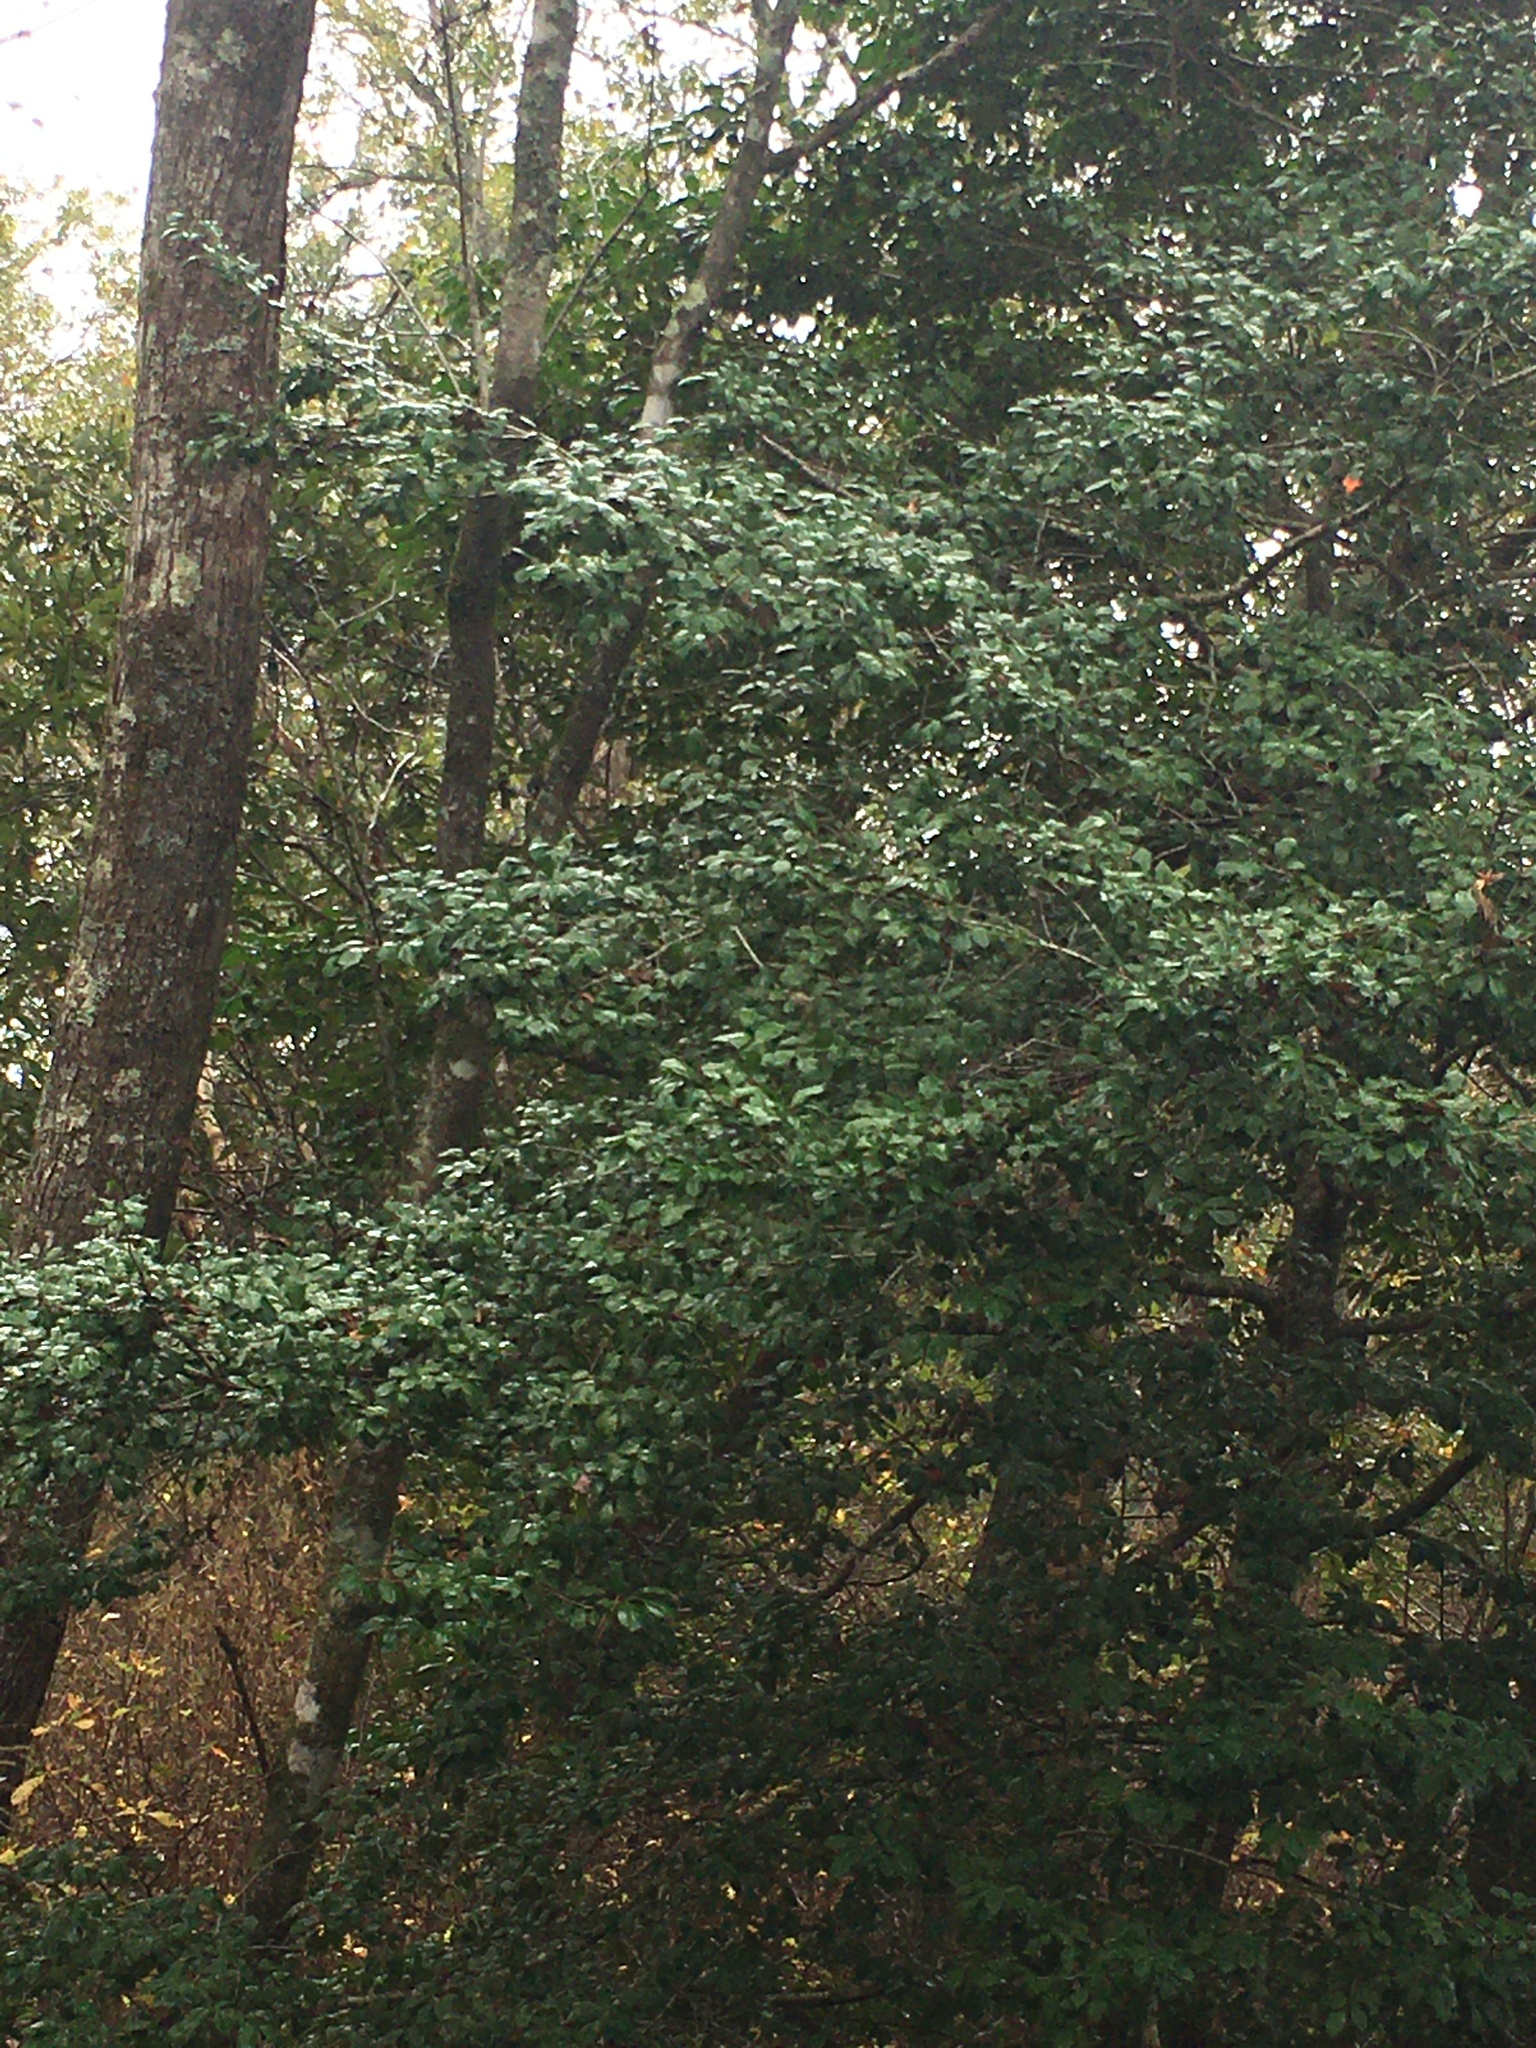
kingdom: Plantae
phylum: Tracheophyta
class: Magnoliopsida
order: Aquifoliales
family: Aquifoliaceae
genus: Ilex
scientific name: Ilex opaca
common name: American holly
